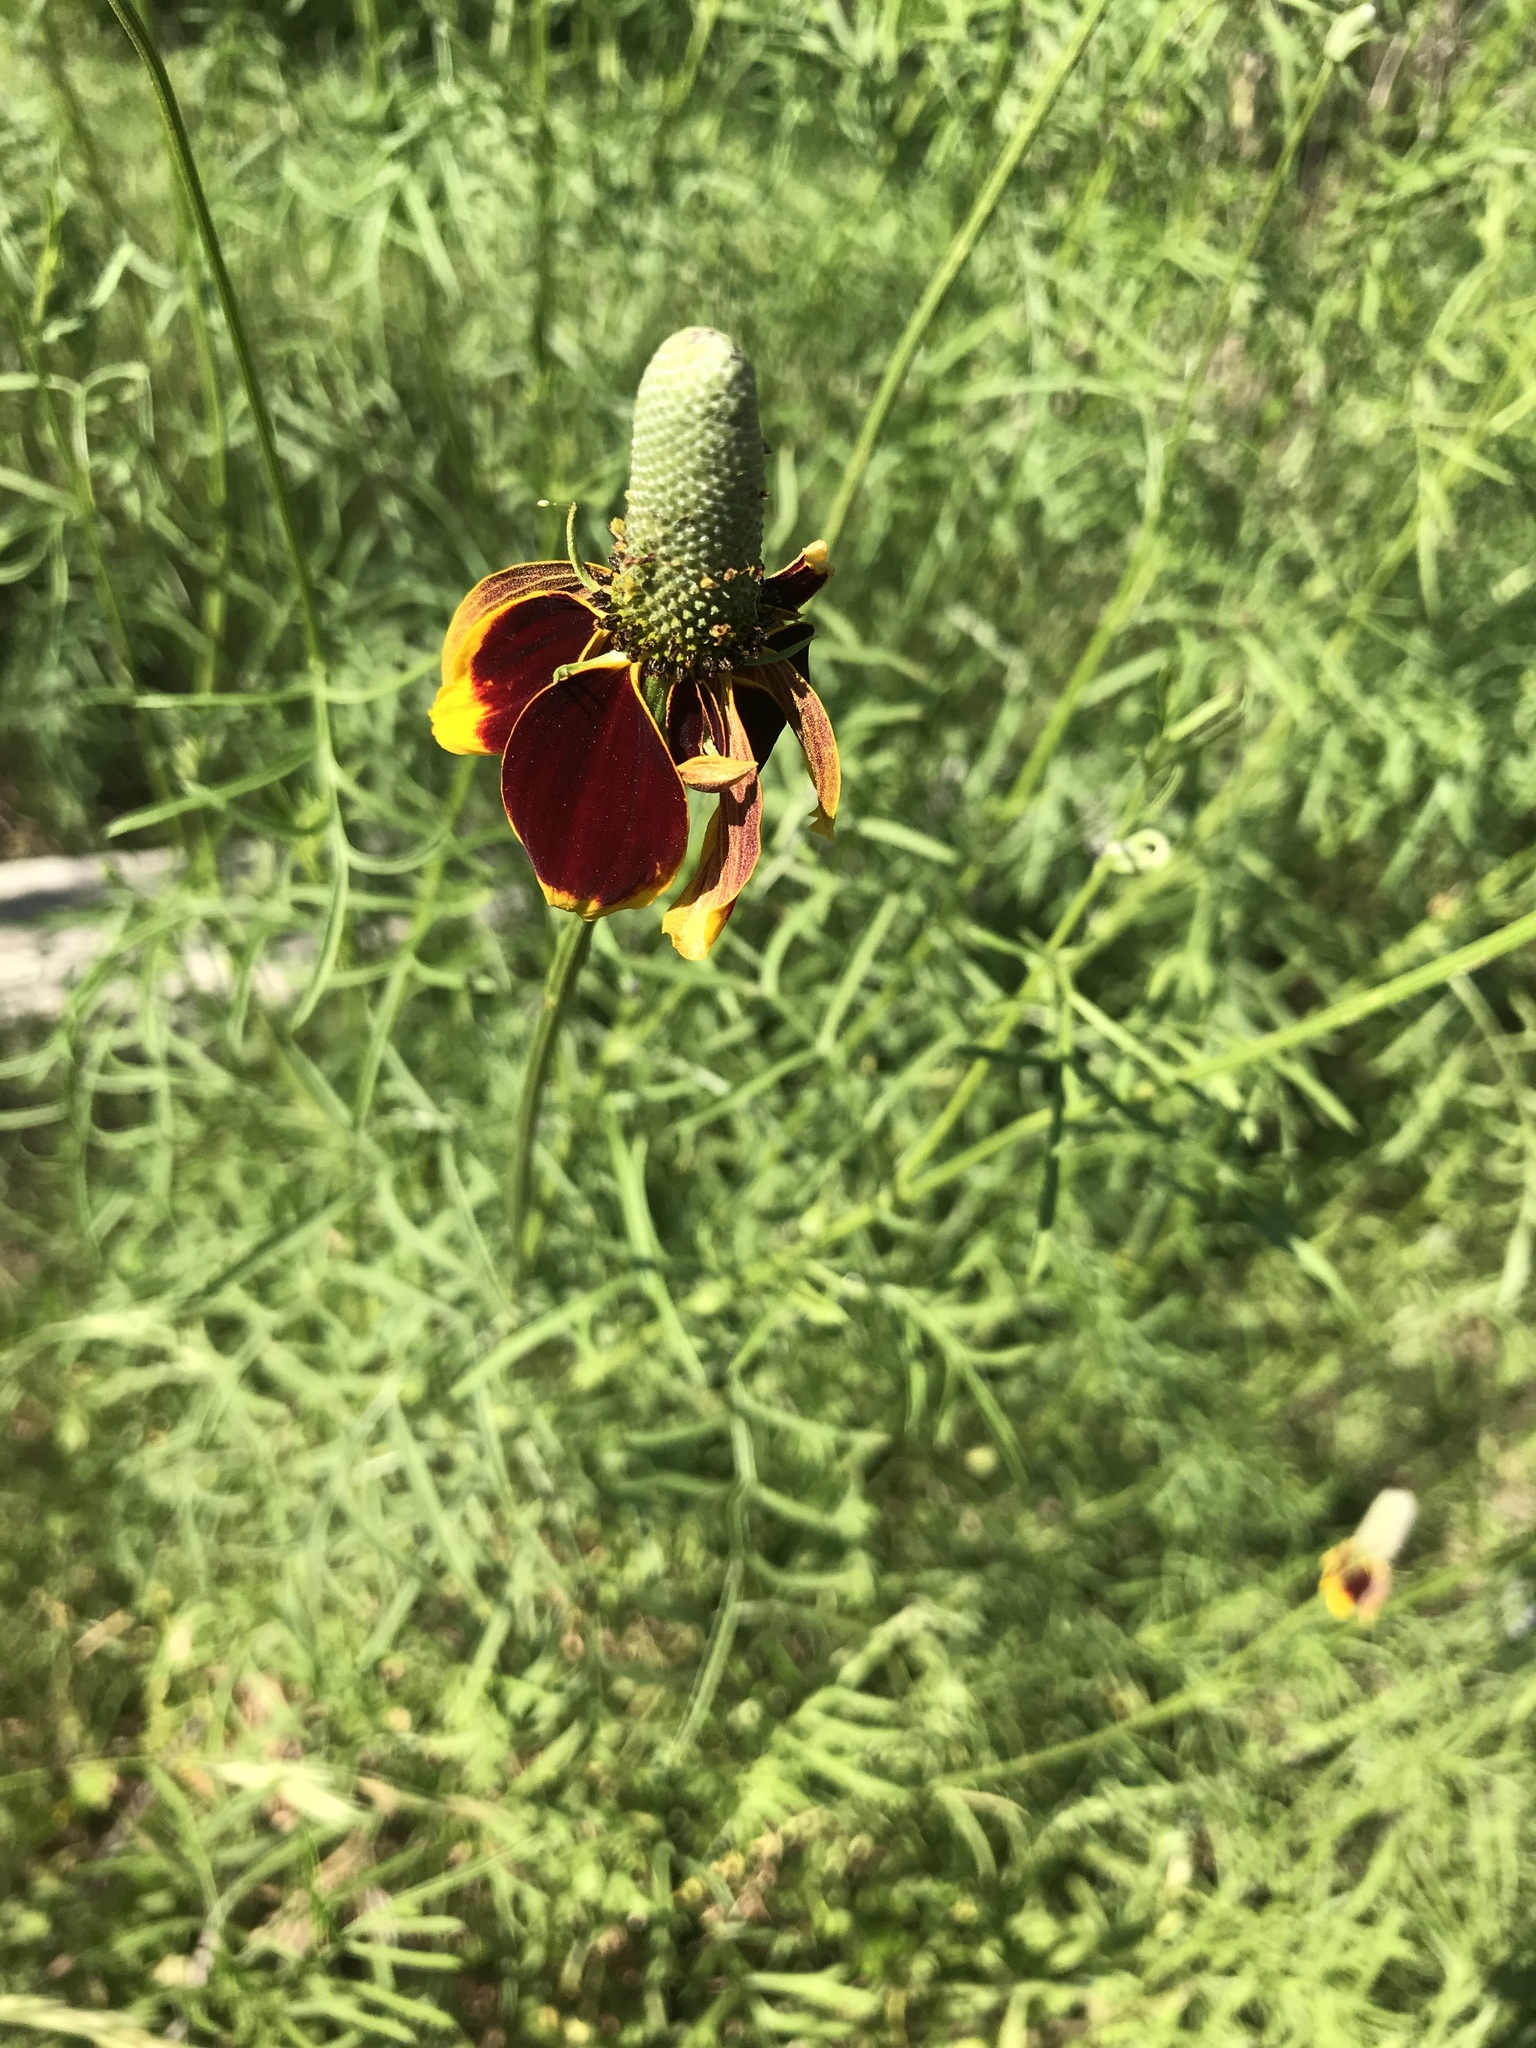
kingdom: Plantae
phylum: Tracheophyta
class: Magnoliopsida
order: Asterales
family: Asteraceae
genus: Ratibida
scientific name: Ratibida columnifera
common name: Prairie coneflower
